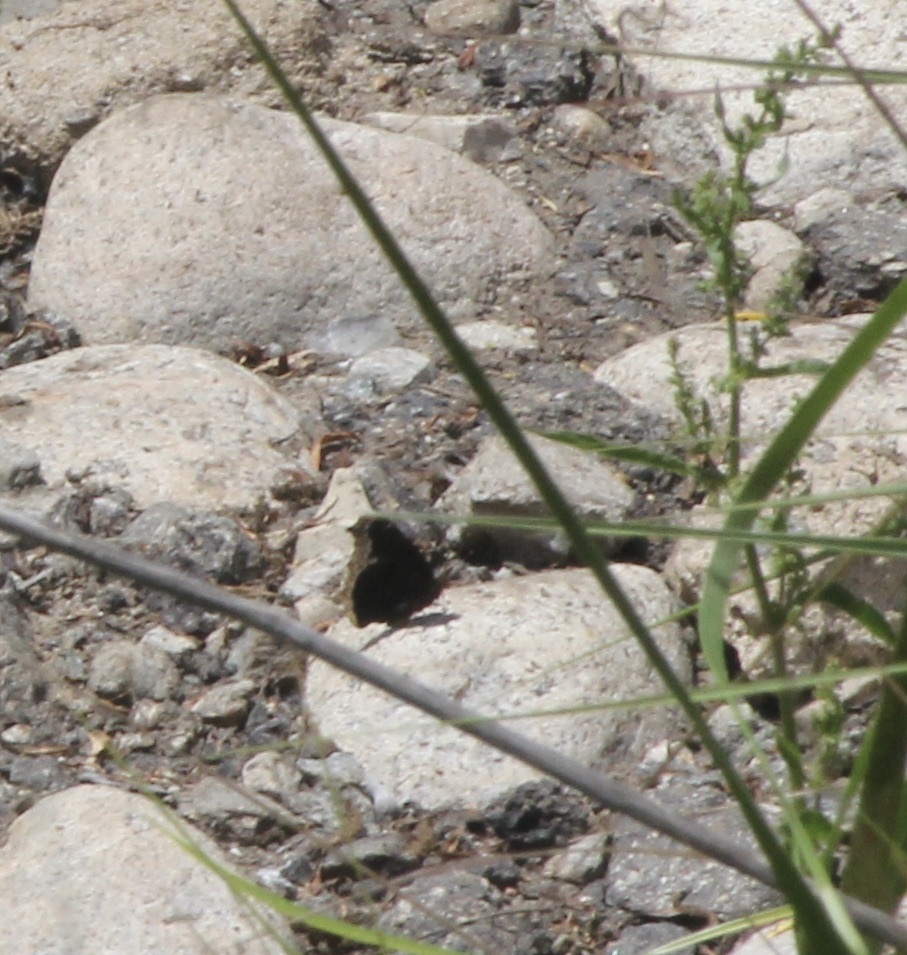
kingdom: Animalia
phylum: Arthropoda
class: Insecta
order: Lepidoptera
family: Nymphalidae
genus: Nymphalis
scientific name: Nymphalis antiopa
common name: Camberwell beauty
